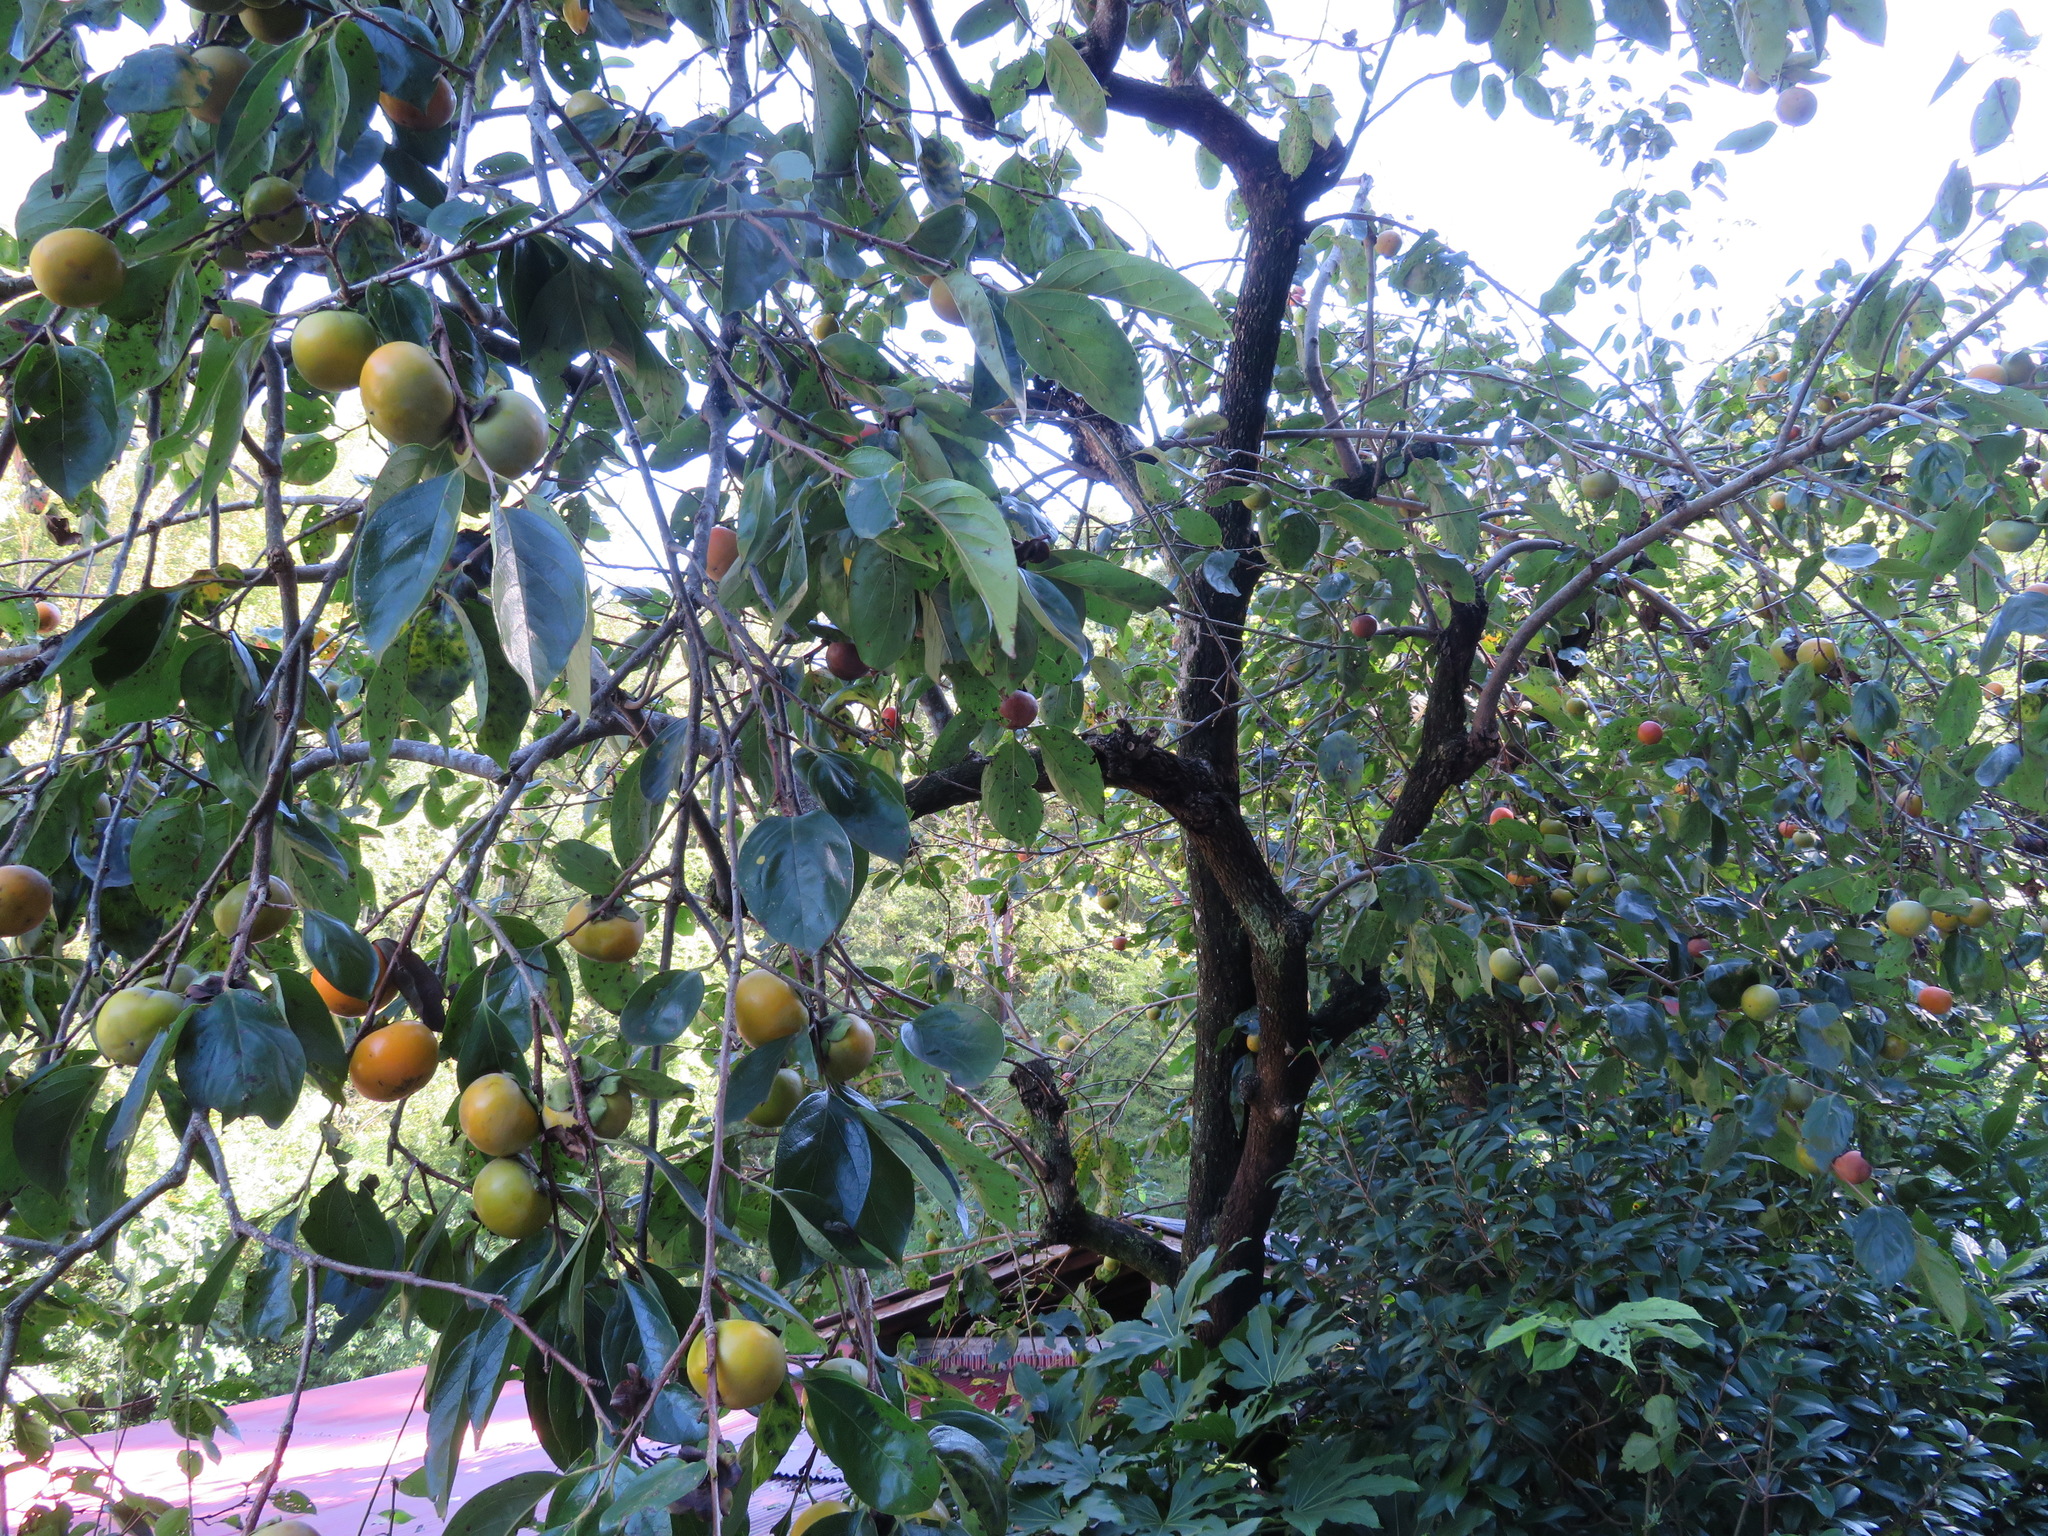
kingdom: Plantae
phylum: Tracheophyta
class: Magnoliopsida
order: Ericales
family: Ebenaceae
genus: Diospyros
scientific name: Diospyros kaki
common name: Persimmon
